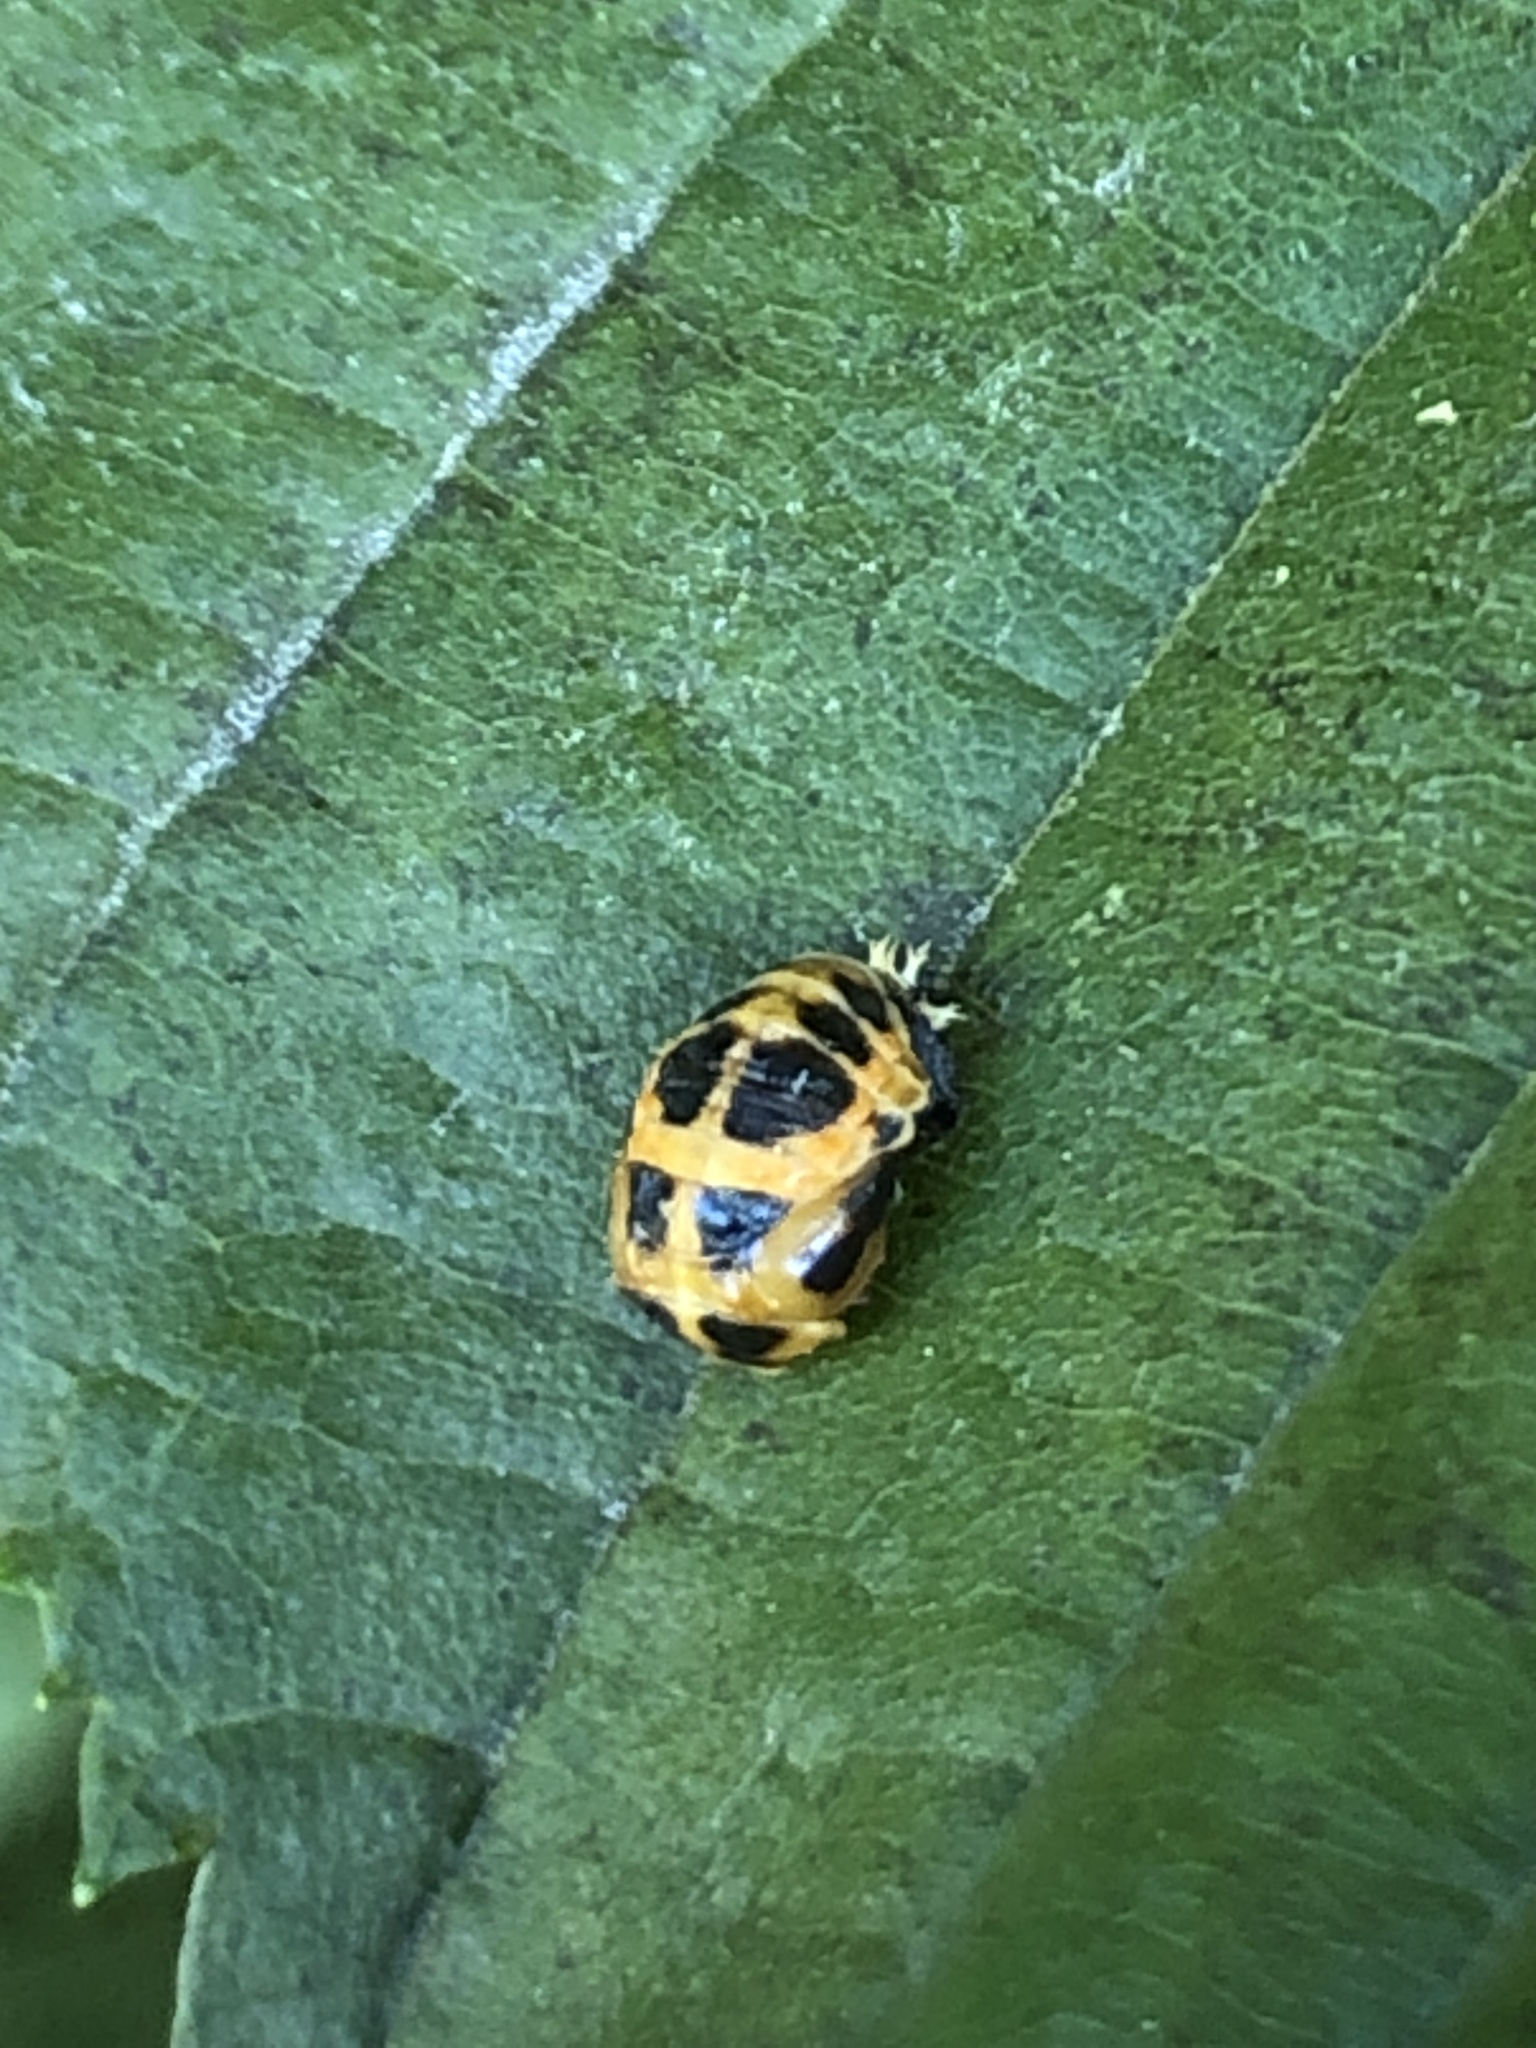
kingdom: Animalia
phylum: Arthropoda
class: Insecta
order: Coleoptera
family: Coccinellidae
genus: Harmonia
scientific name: Harmonia axyridis
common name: Harlequin ladybird
